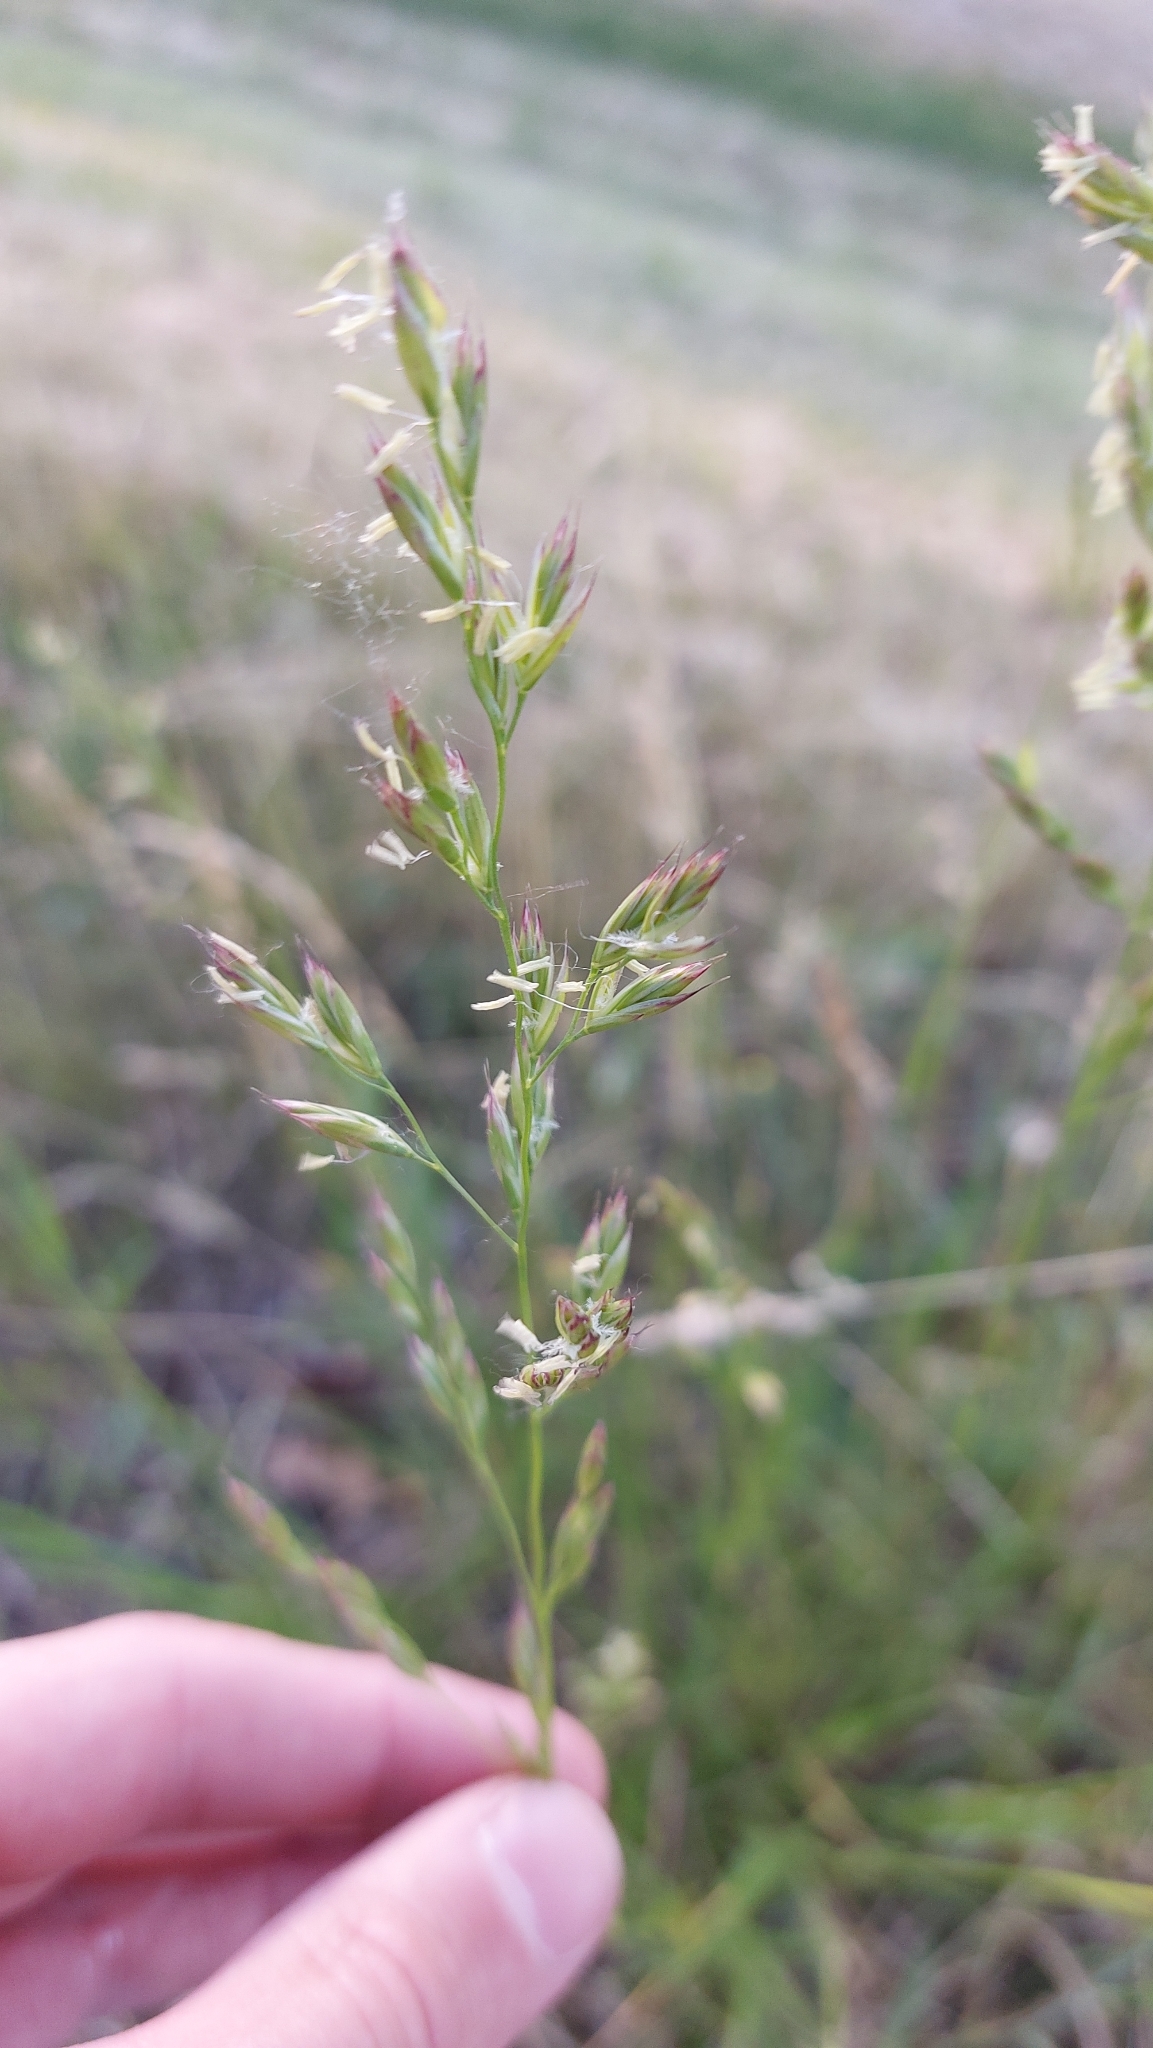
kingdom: Plantae
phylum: Tracheophyta
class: Liliopsida
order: Poales
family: Poaceae
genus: Lolium
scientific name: Lolium arundinaceum
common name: Reed fescue
